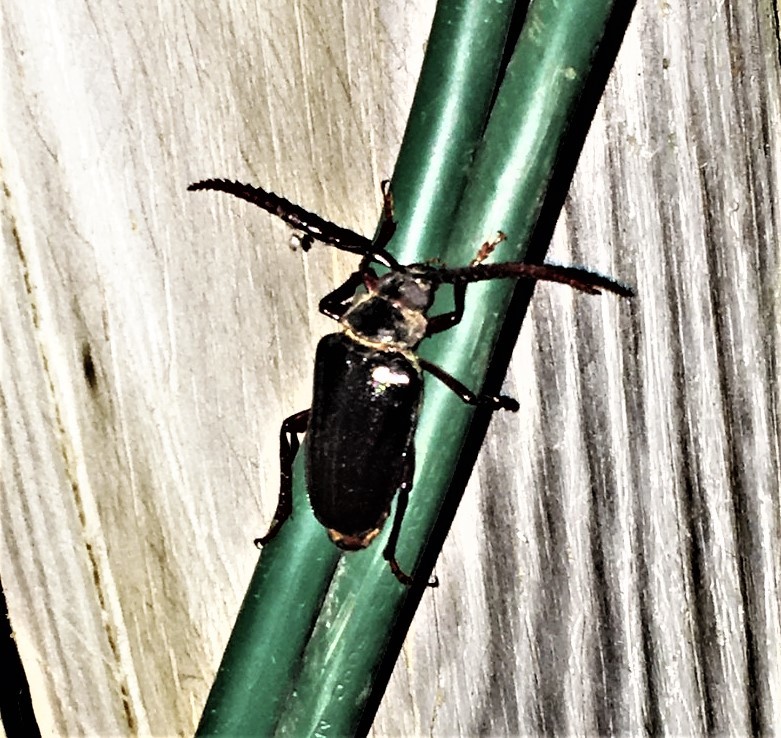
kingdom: Animalia
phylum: Arthropoda
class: Insecta
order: Coleoptera
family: Cerambycidae
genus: Prionus
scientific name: Prionus imbricornis
